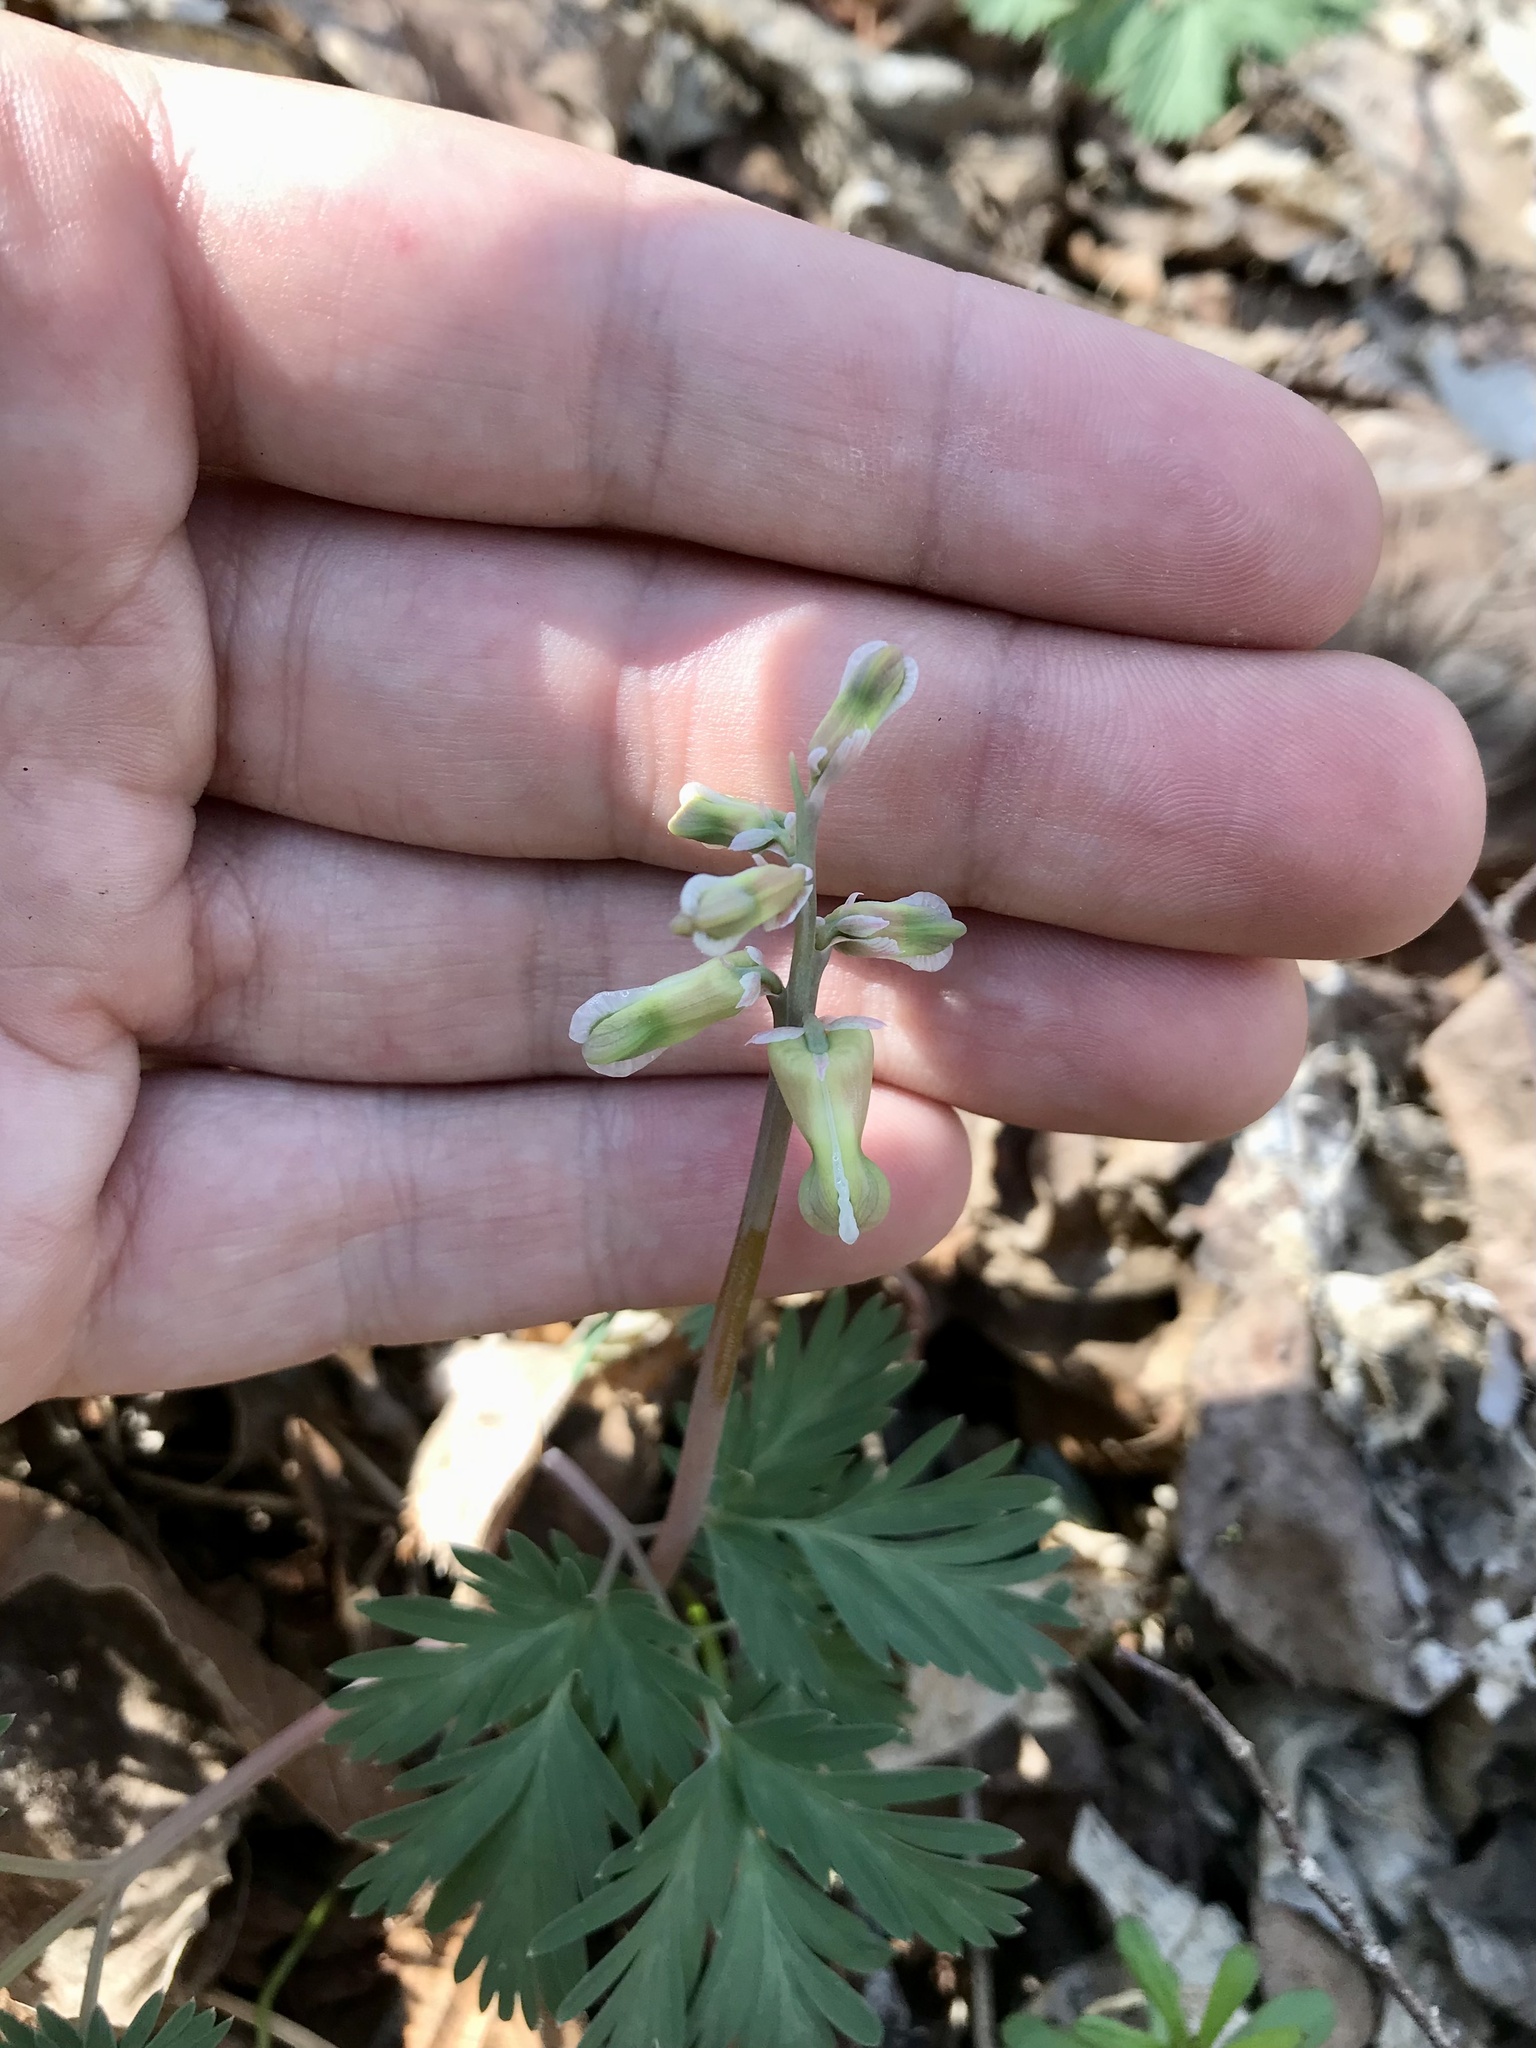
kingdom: Plantae
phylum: Tracheophyta
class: Magnoliopsida
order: Ranunculales
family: Papaveraceae
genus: Dicentra
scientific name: Dicentra canadensis
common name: Squirrel-corn
